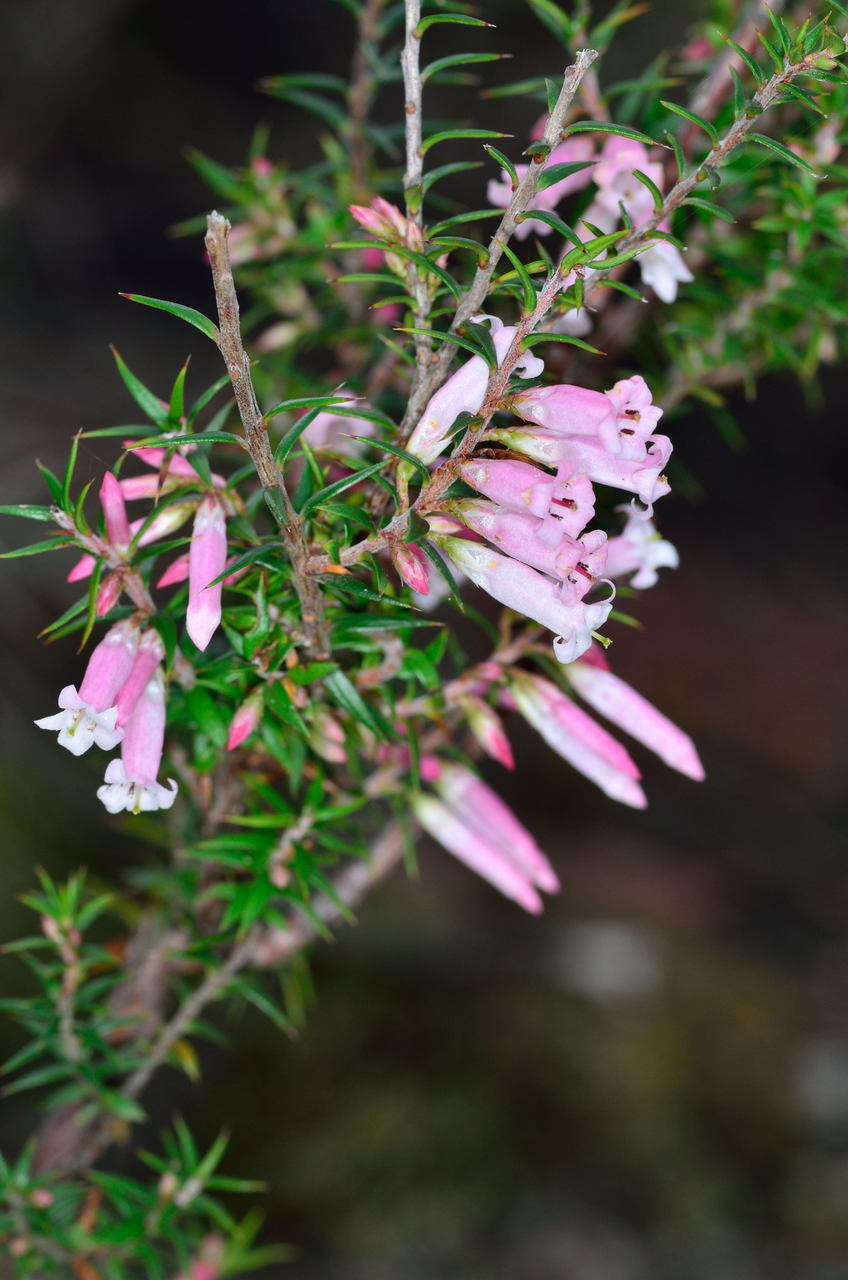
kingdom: Plantae
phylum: Tracheophyta
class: Magnoliopsida
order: Ericales
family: Ericaceae
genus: Epacris
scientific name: Epacris impressa
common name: Common-heath
